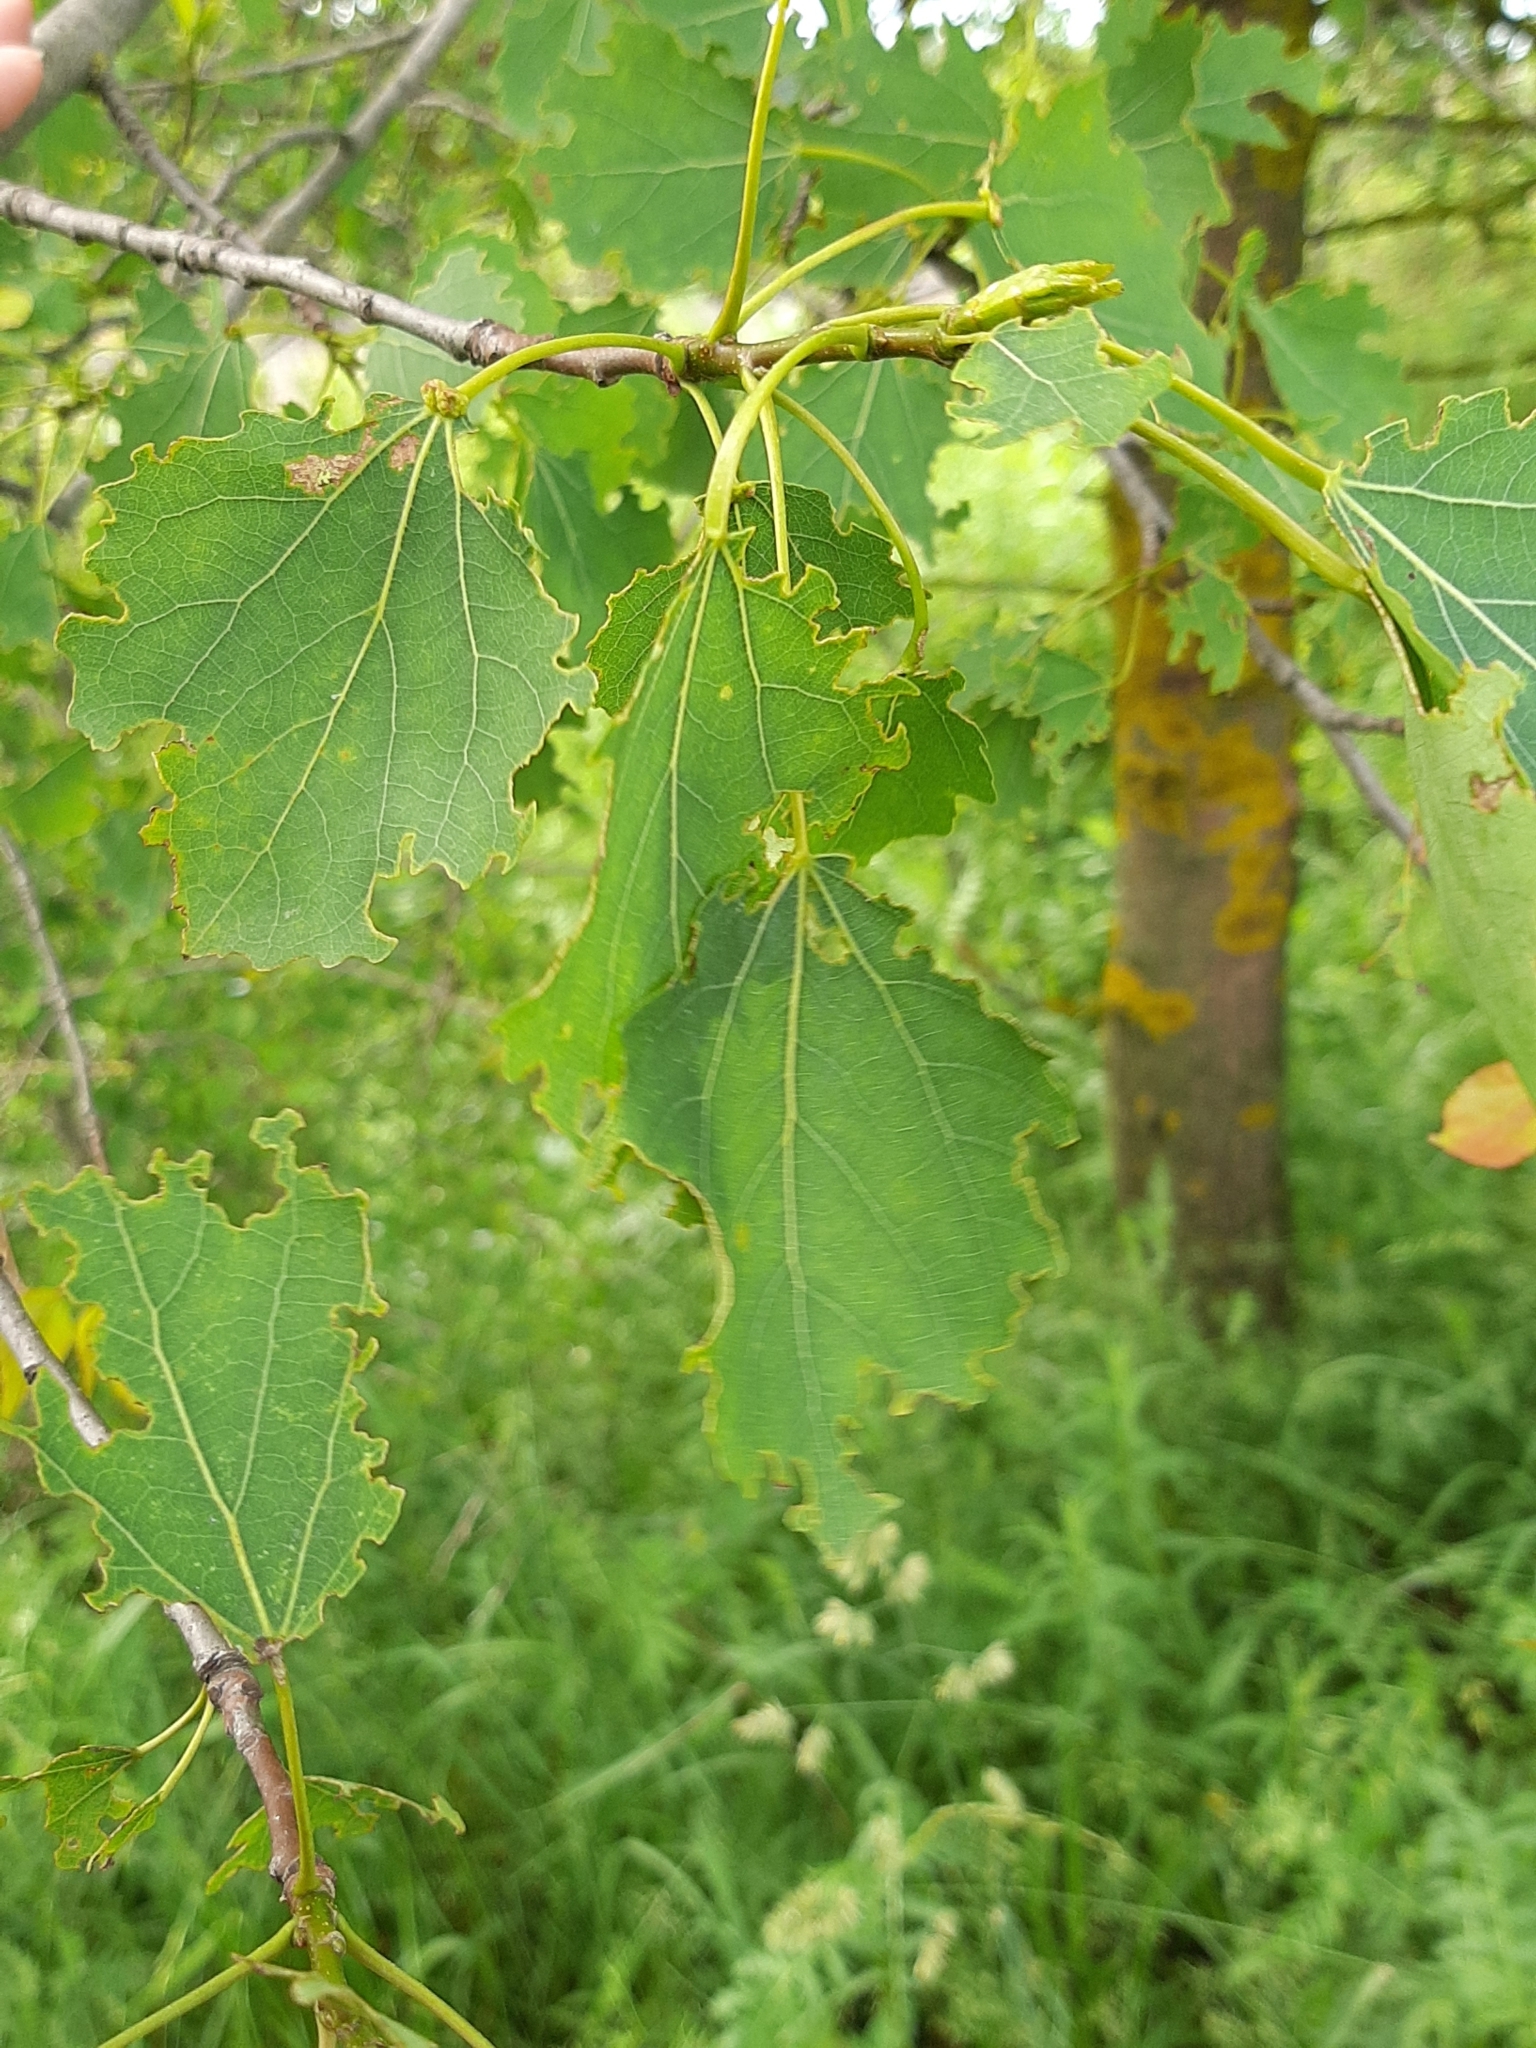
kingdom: Plantae
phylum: Tracheophyta
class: Magnoliopsida
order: Malpighiales
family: Salicaceae
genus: Populus
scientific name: Populus tremula
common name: European aspen
